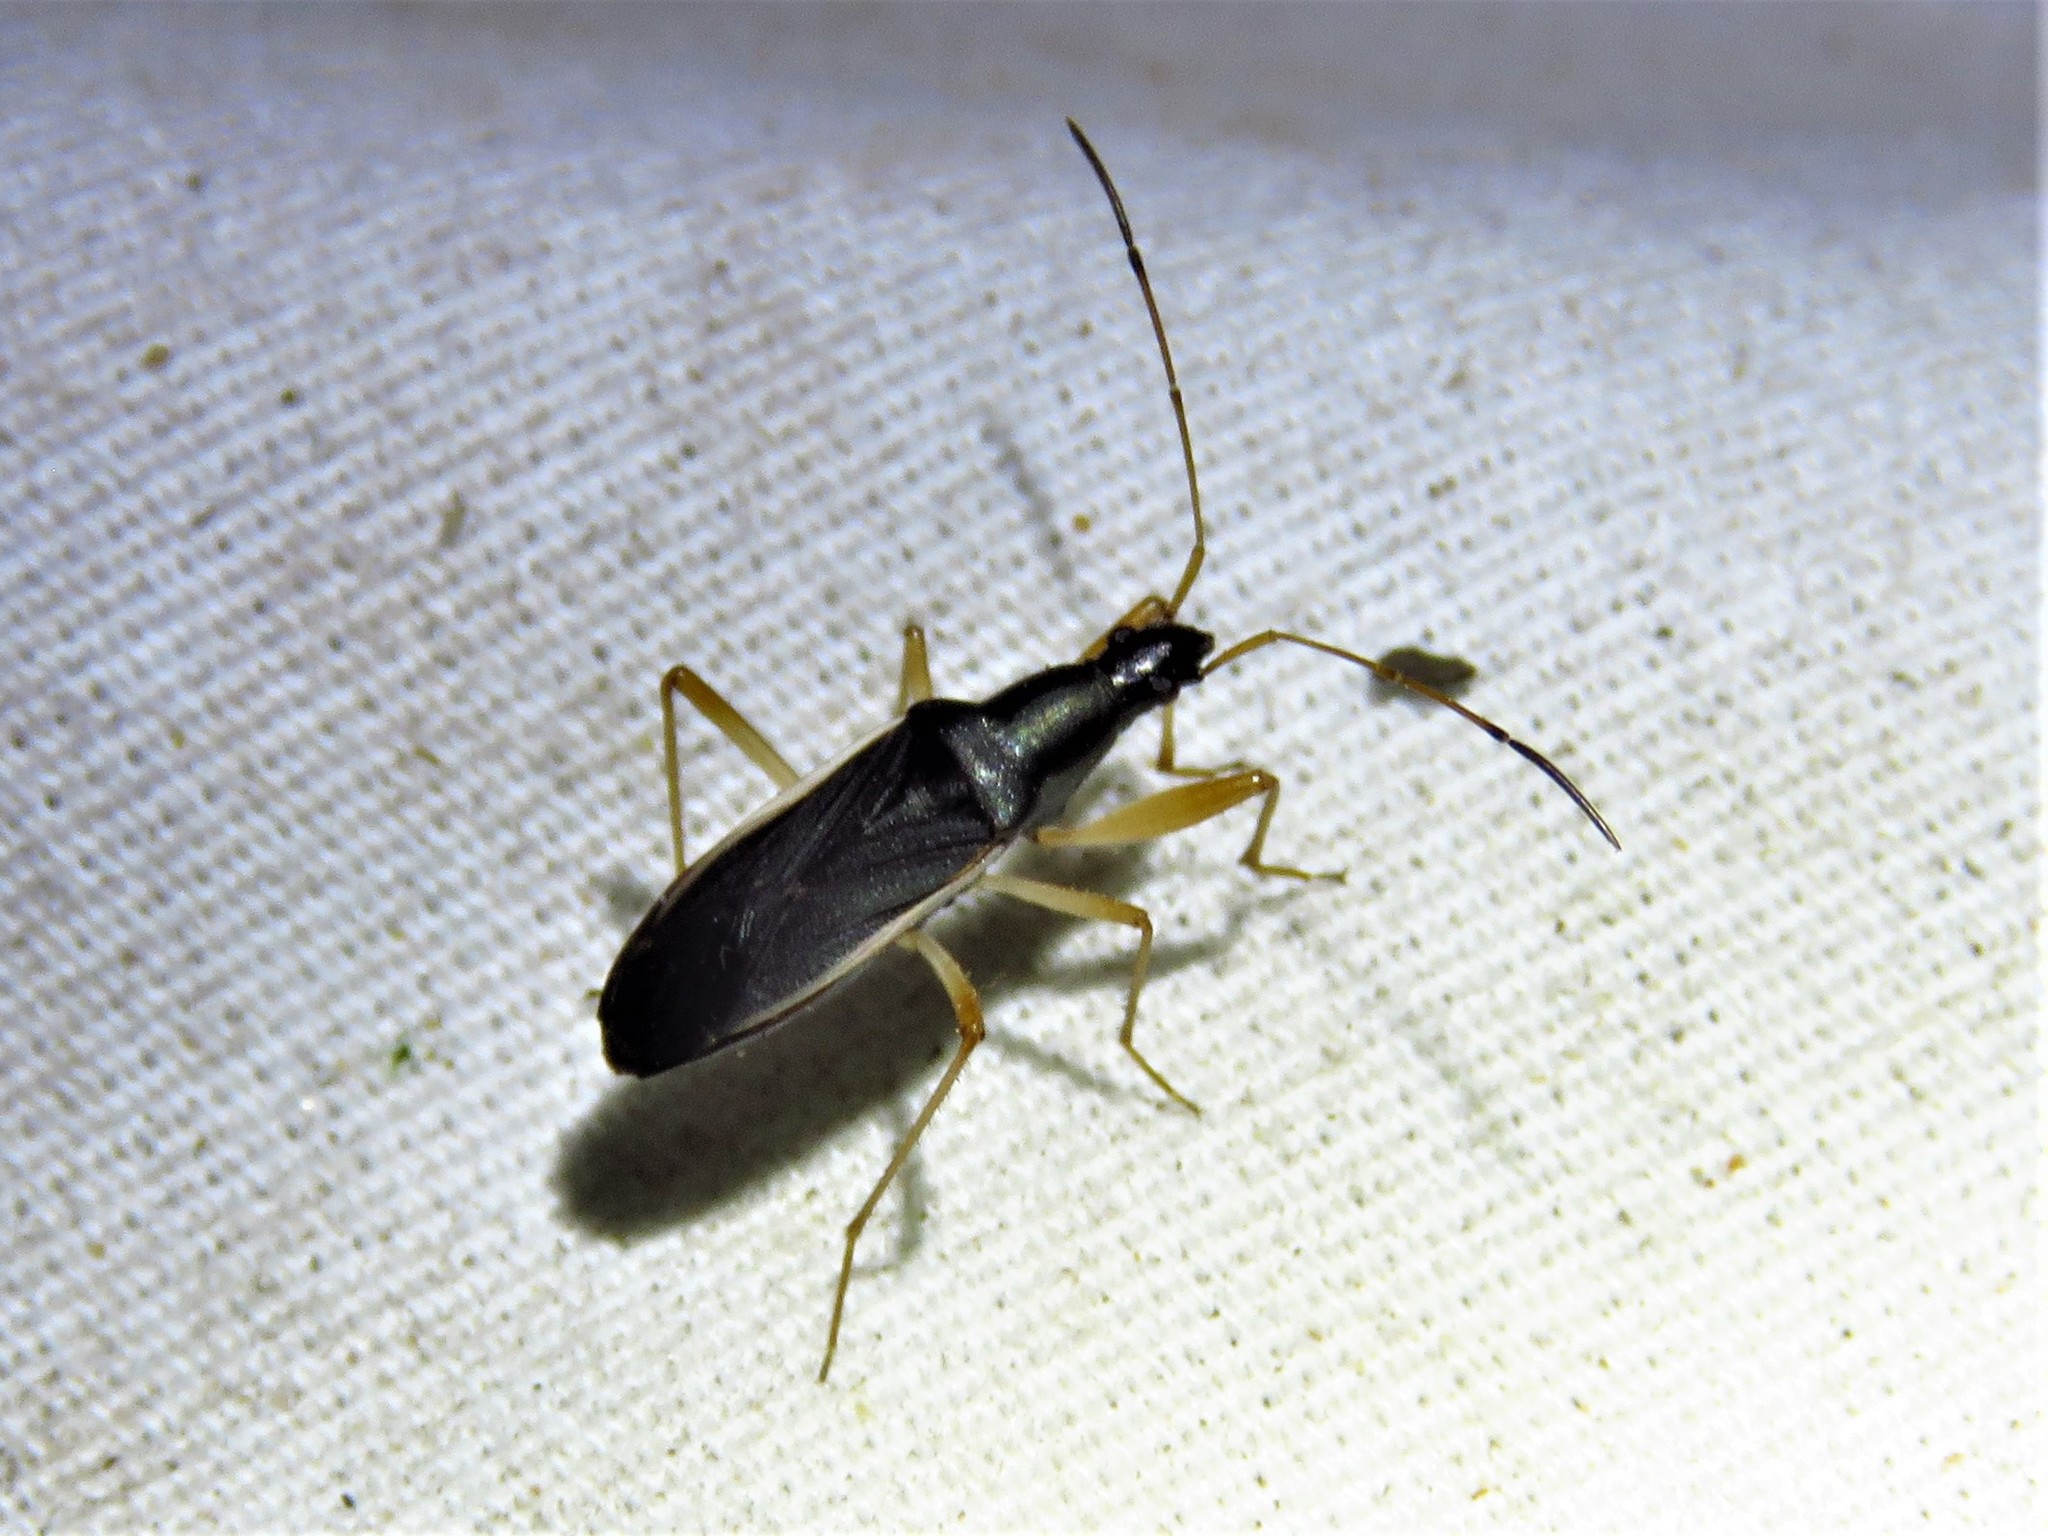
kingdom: Animalia
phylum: Arthropoda
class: Insecta
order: Hemiptera
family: Rhyparochromidae
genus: Cnemodus
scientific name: Cnemodus mavortius
